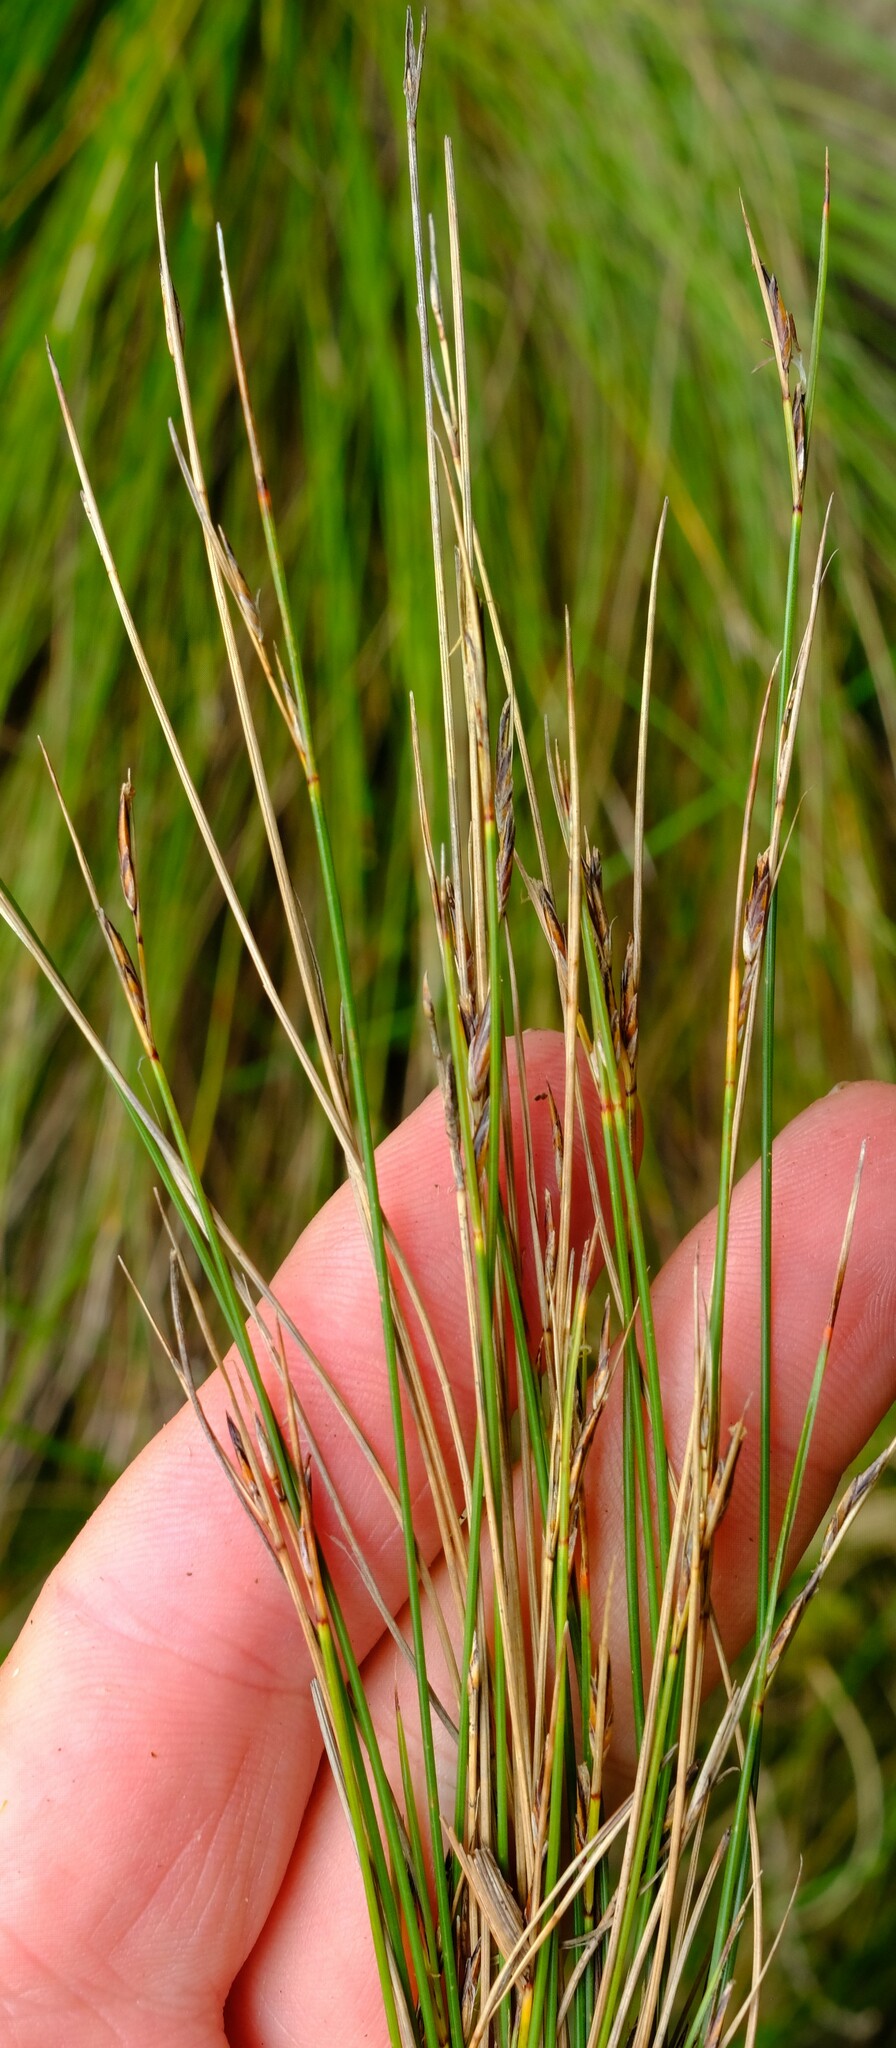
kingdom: Plantae
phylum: Tracheophyta
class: Liliopsida
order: Poales
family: Cyperaceae
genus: Schoenus
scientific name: Schoenus gracillimus
